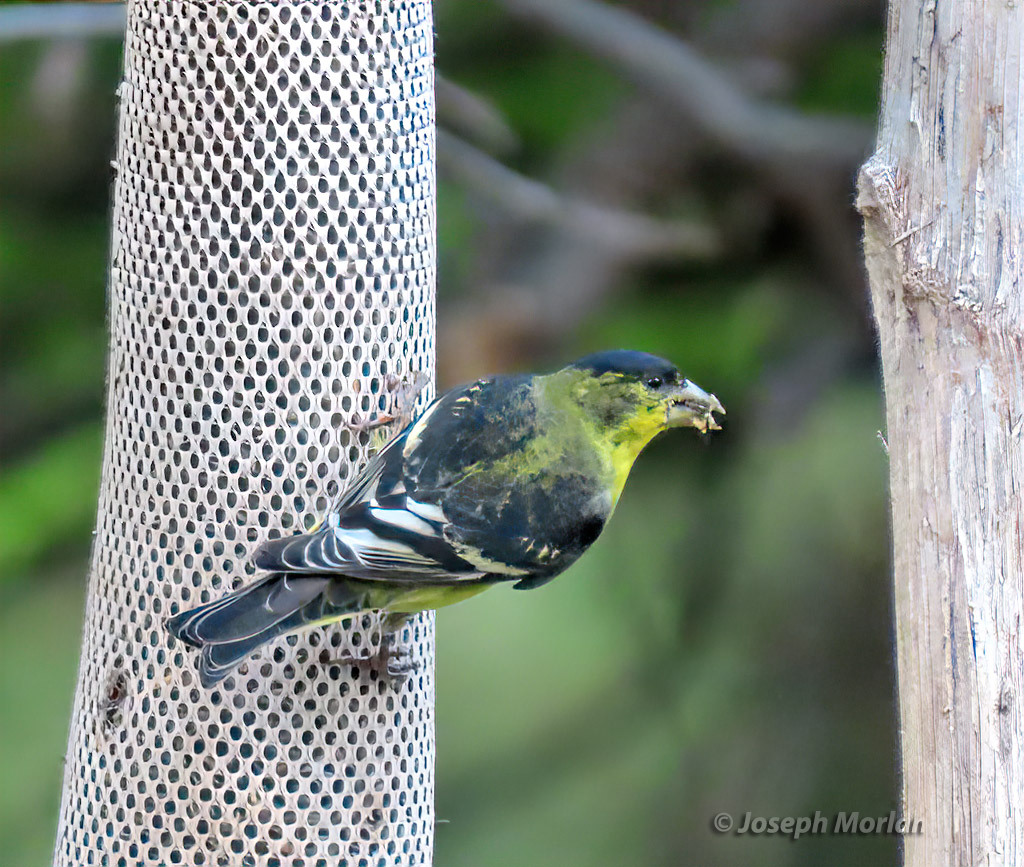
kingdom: Animalia
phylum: Chordata
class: Aves
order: Passeriformes
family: Fringillidae
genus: Spinus
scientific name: Spinus psaltria
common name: Lesser goldfinch
